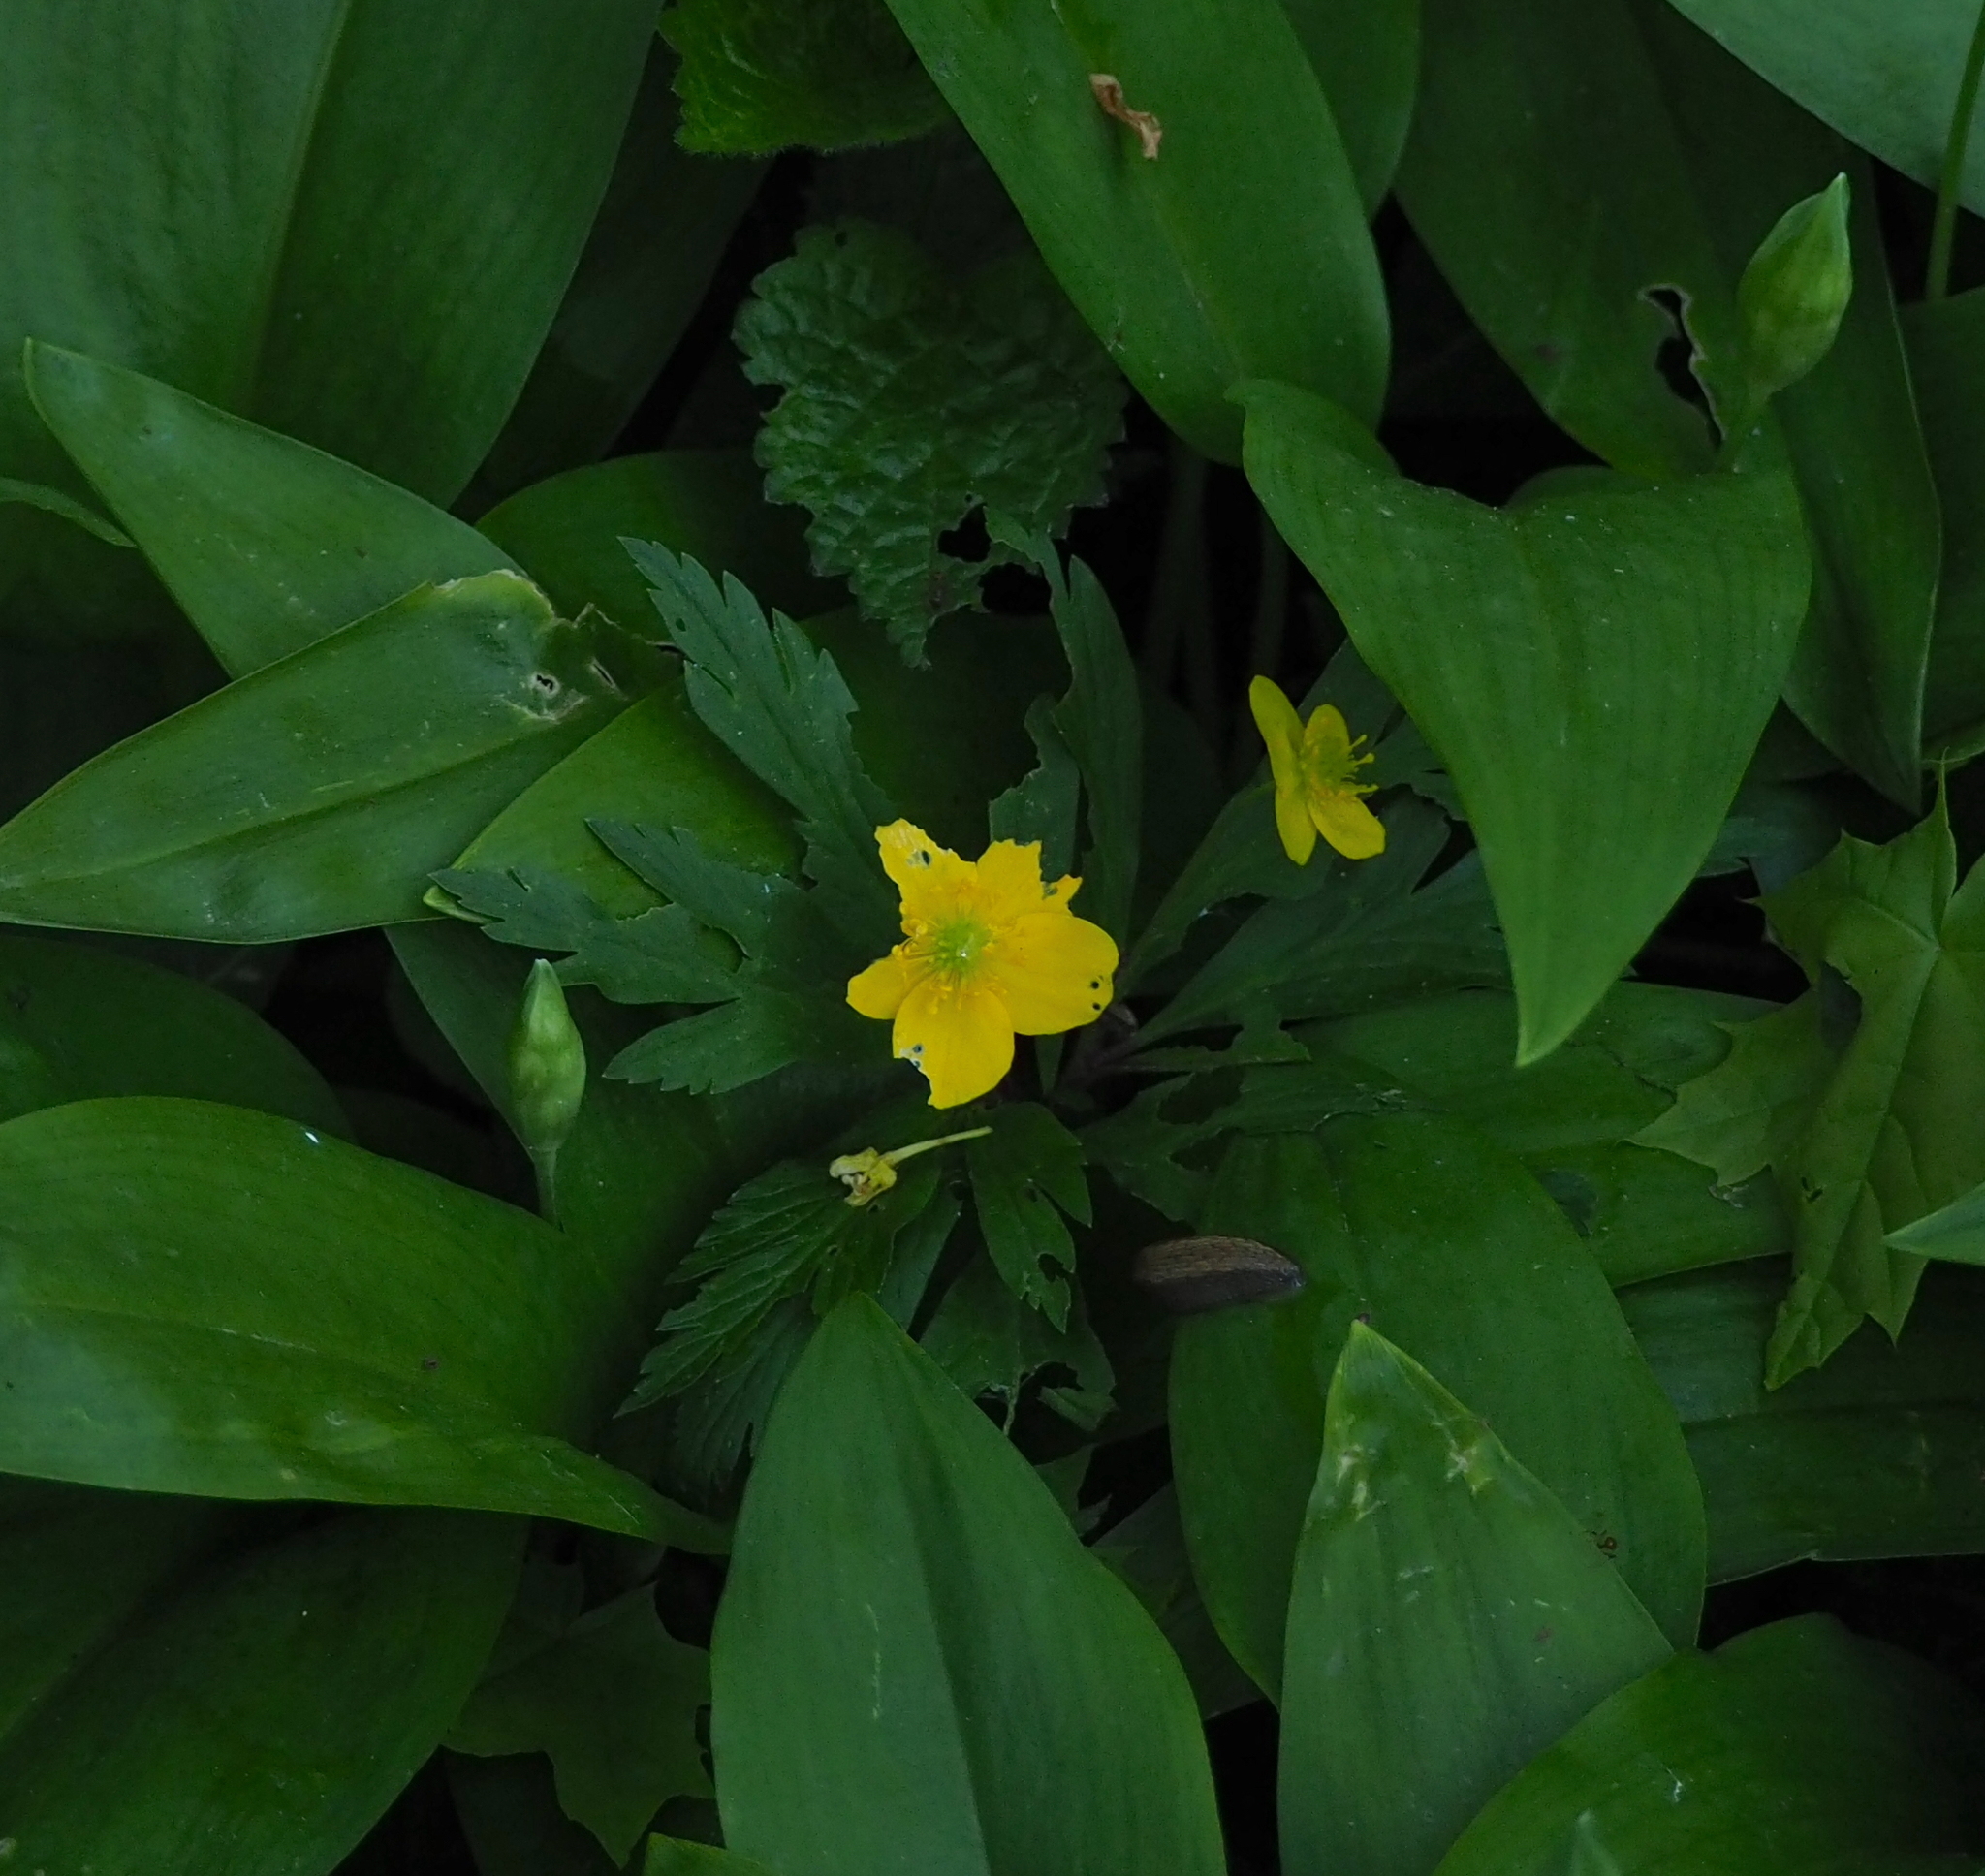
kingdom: Plantae
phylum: Tracheophyta
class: Magnoliopsida
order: Ranunculales
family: Ranunculaceae
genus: Anemone
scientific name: Anemone ranunculoides
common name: Yellow anemone
